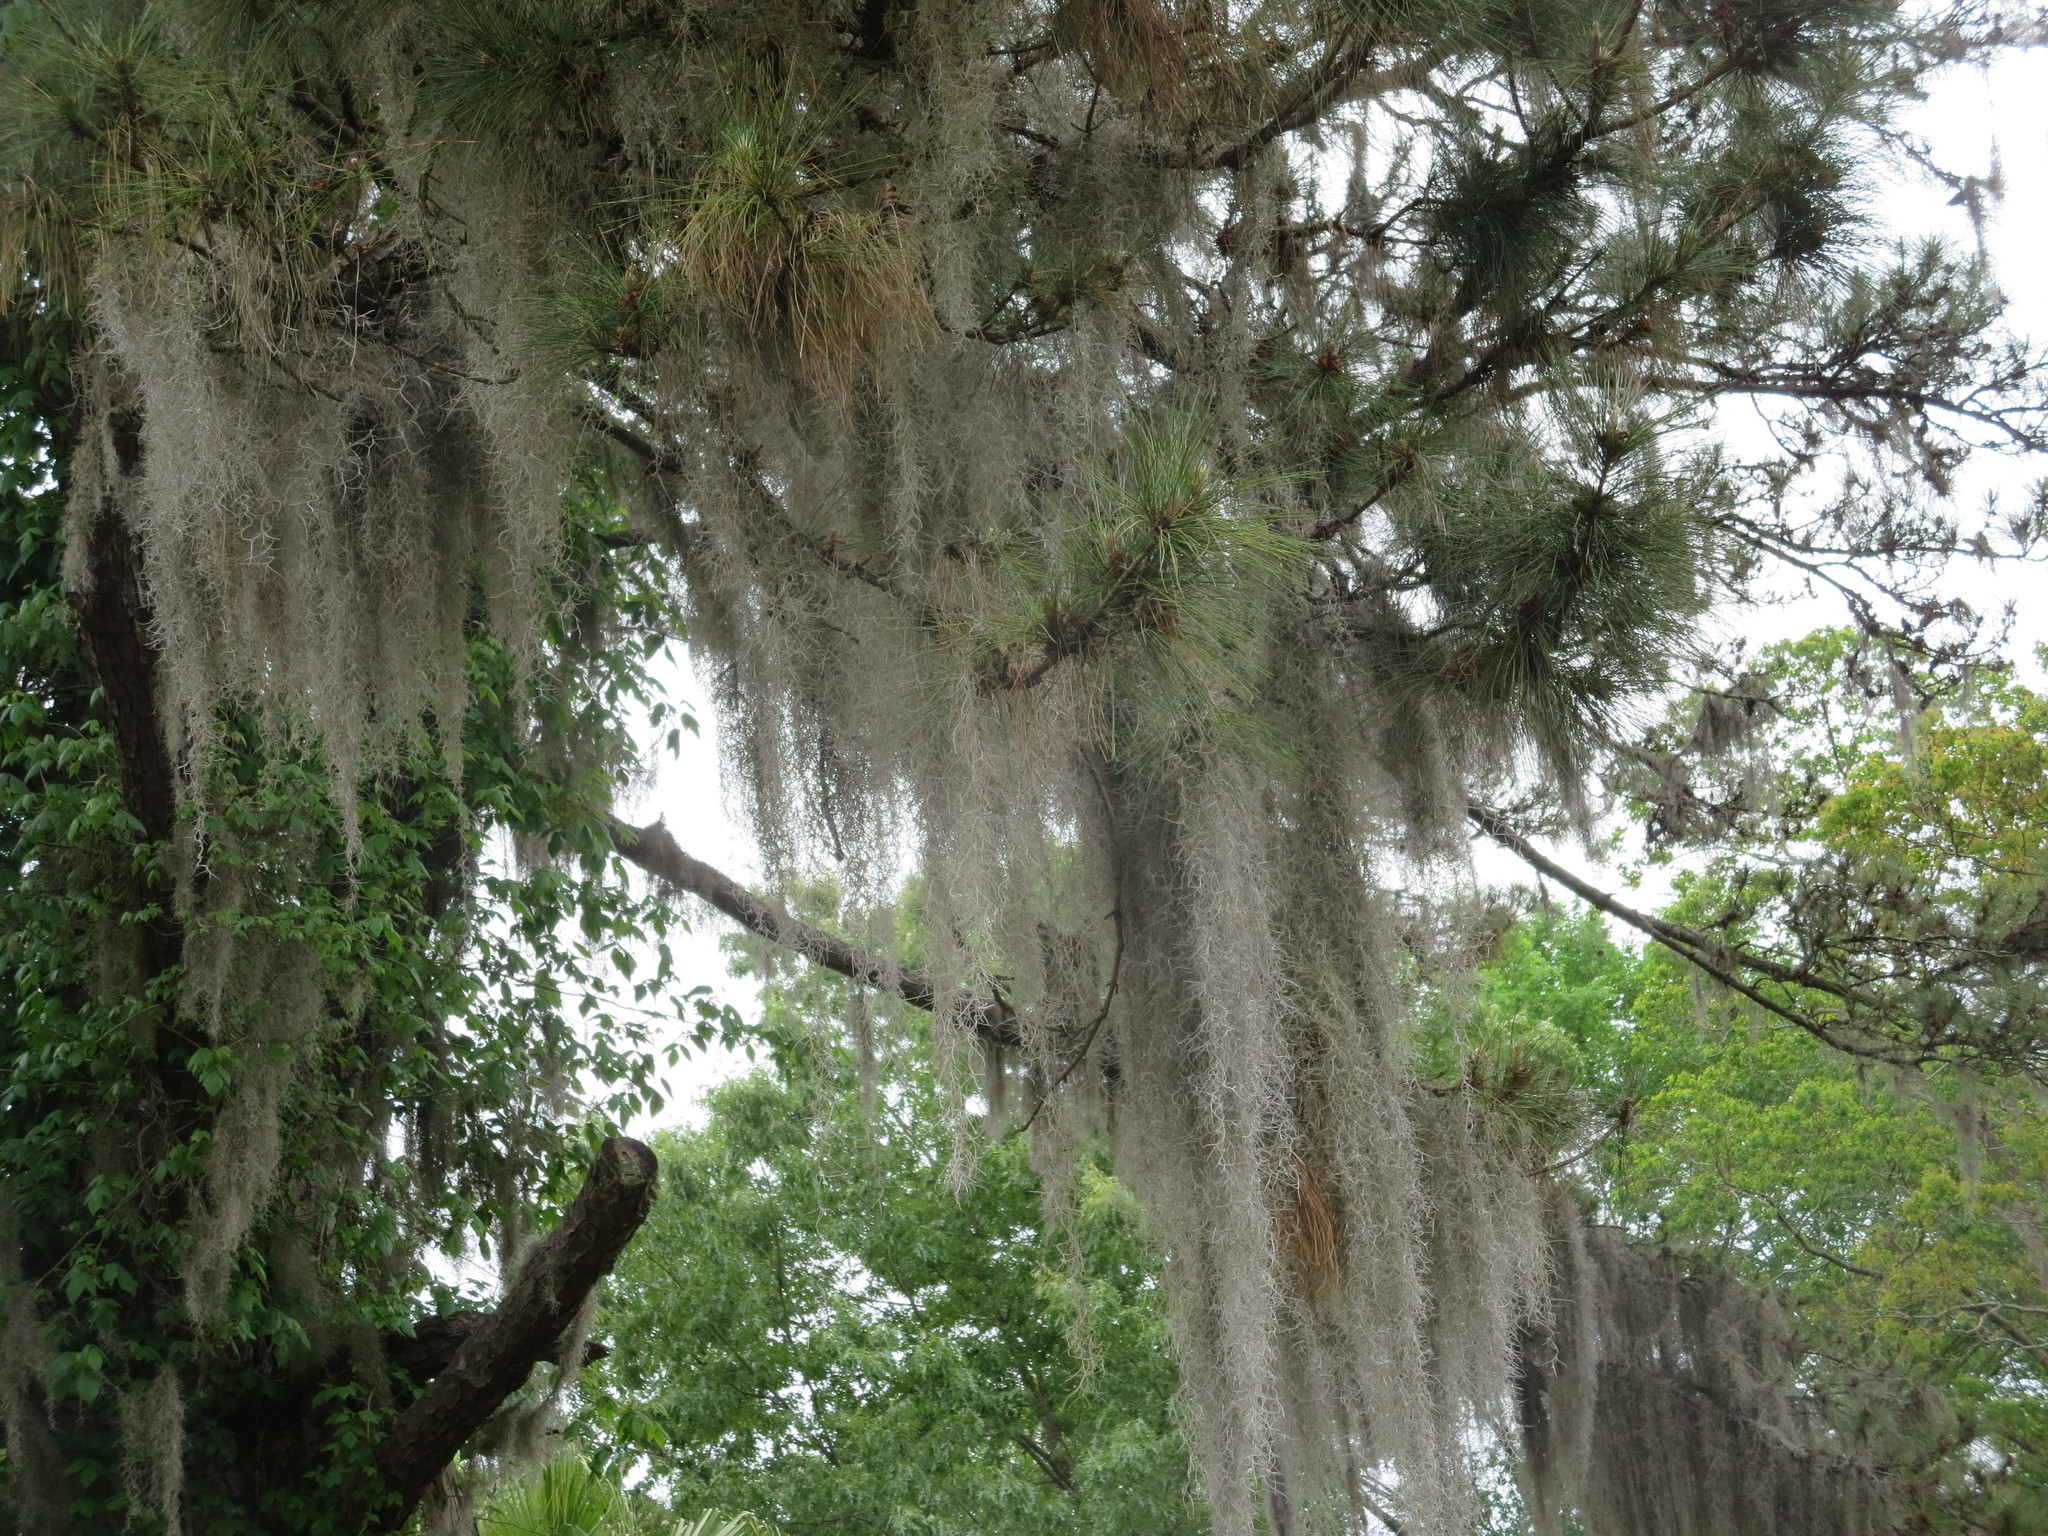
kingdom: Plantae
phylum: Tracheophyta
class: Liliopsida
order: Poales
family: Bromeliaceae
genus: Tillandsia
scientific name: Tillandsia usneoides
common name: Spanish moss
